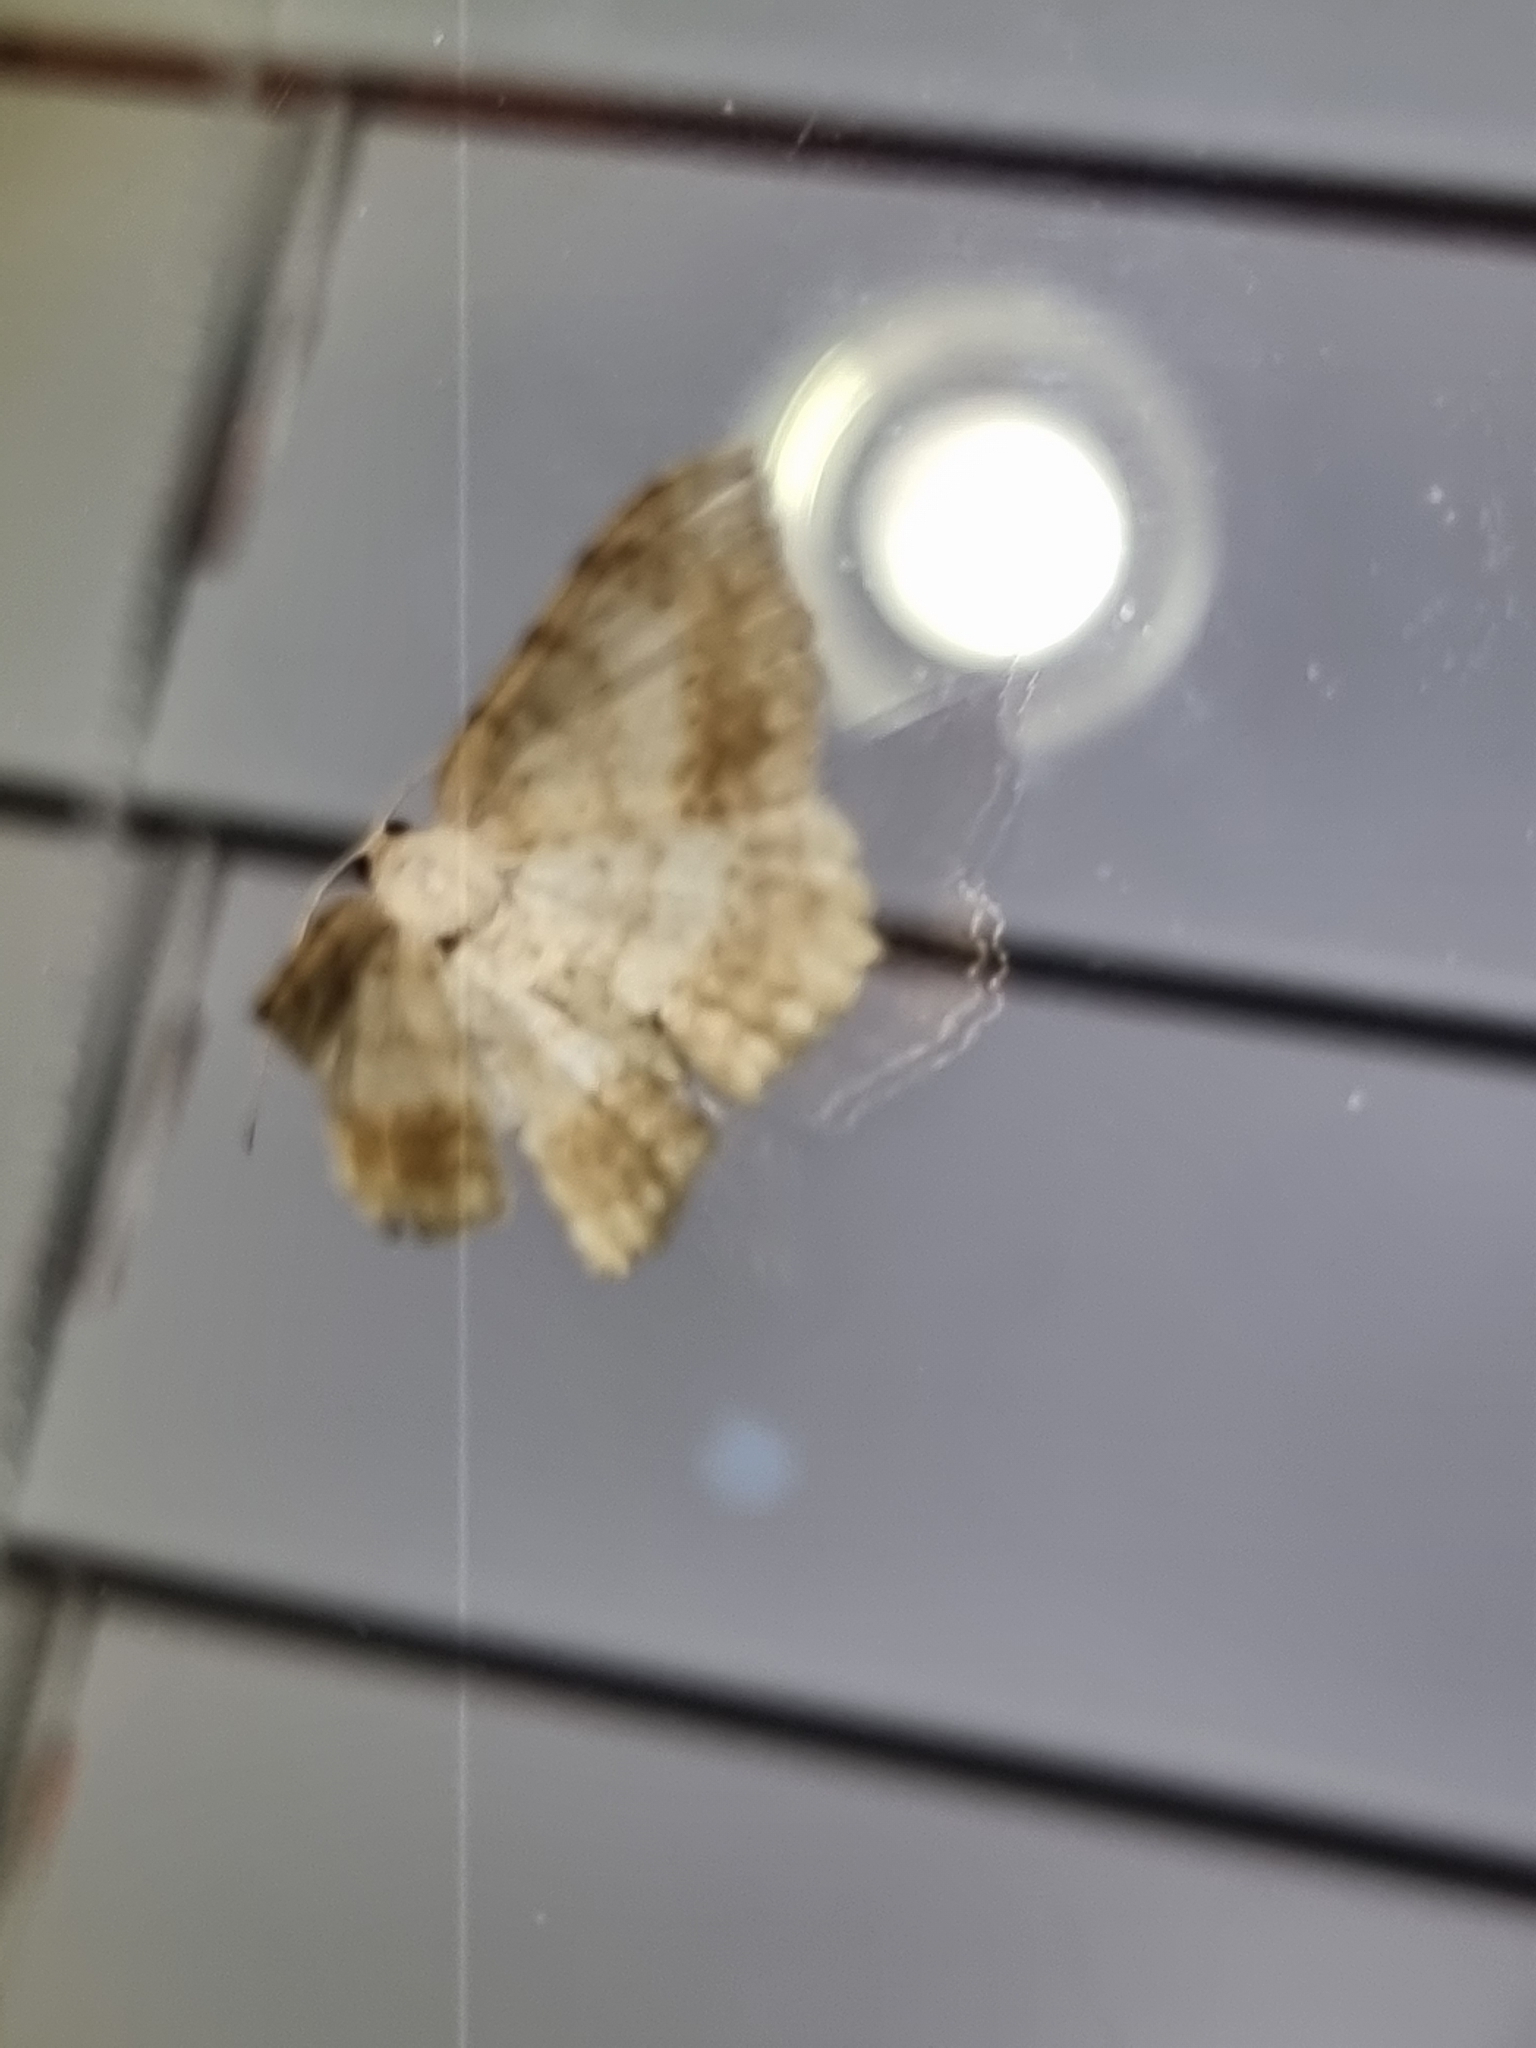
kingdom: Animalia
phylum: Arthropoda
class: Insecta
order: Lepidoptera
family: Geometridae
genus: Luxiaria
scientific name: Luxiaria ochrophara
